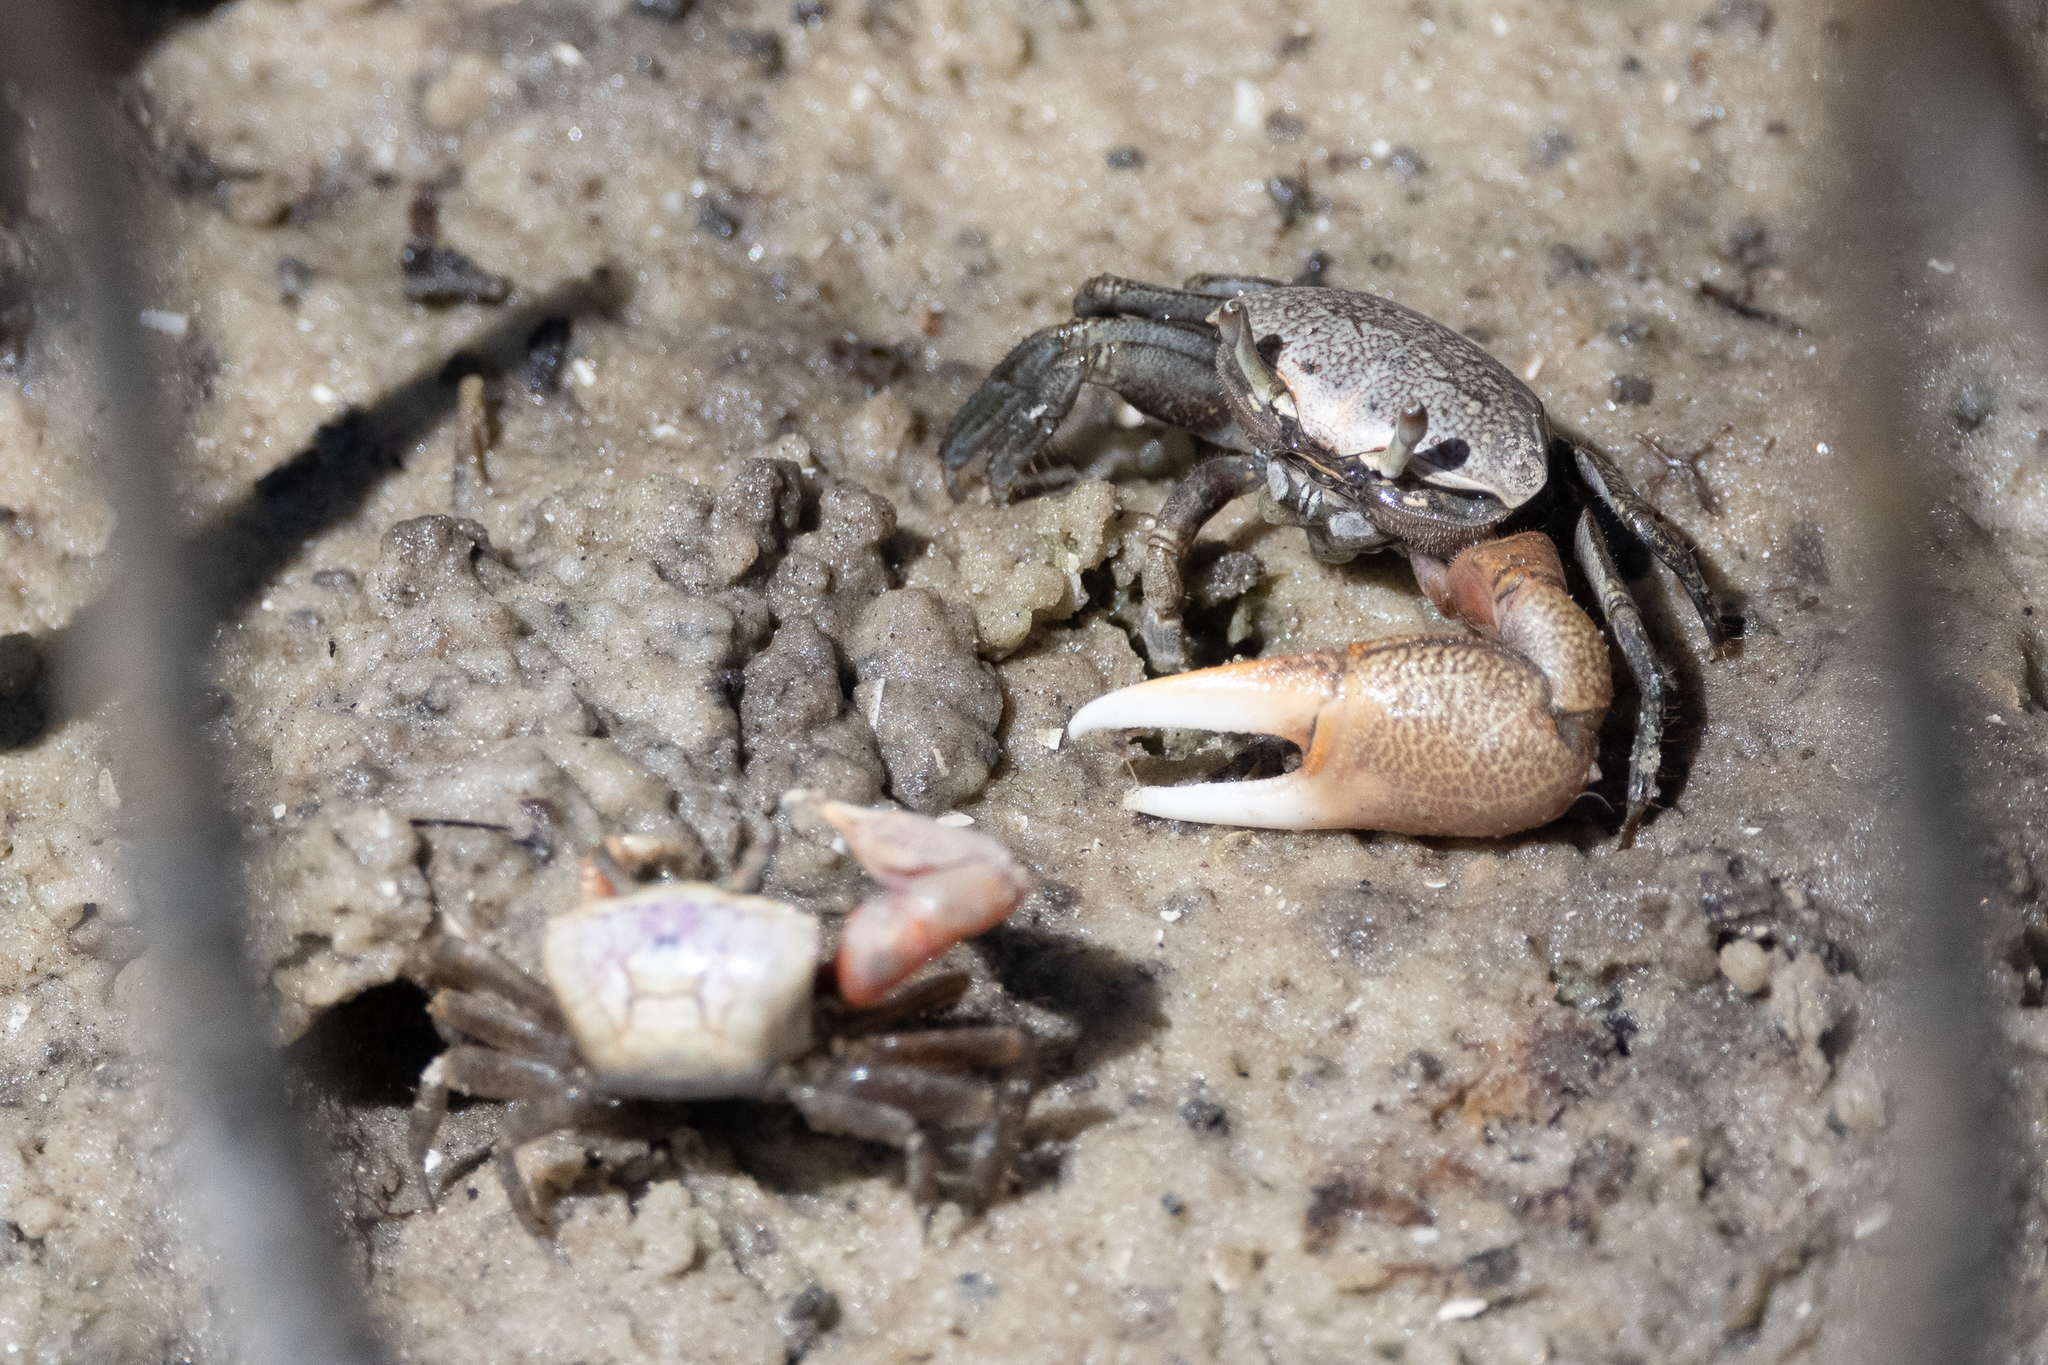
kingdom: Animalia
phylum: Arthropoda
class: Malacostraca
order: Decapoda
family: Ocypodidae
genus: Leptuca
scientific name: Leptuca pugilator
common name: Atlantic sand fiddler crab
